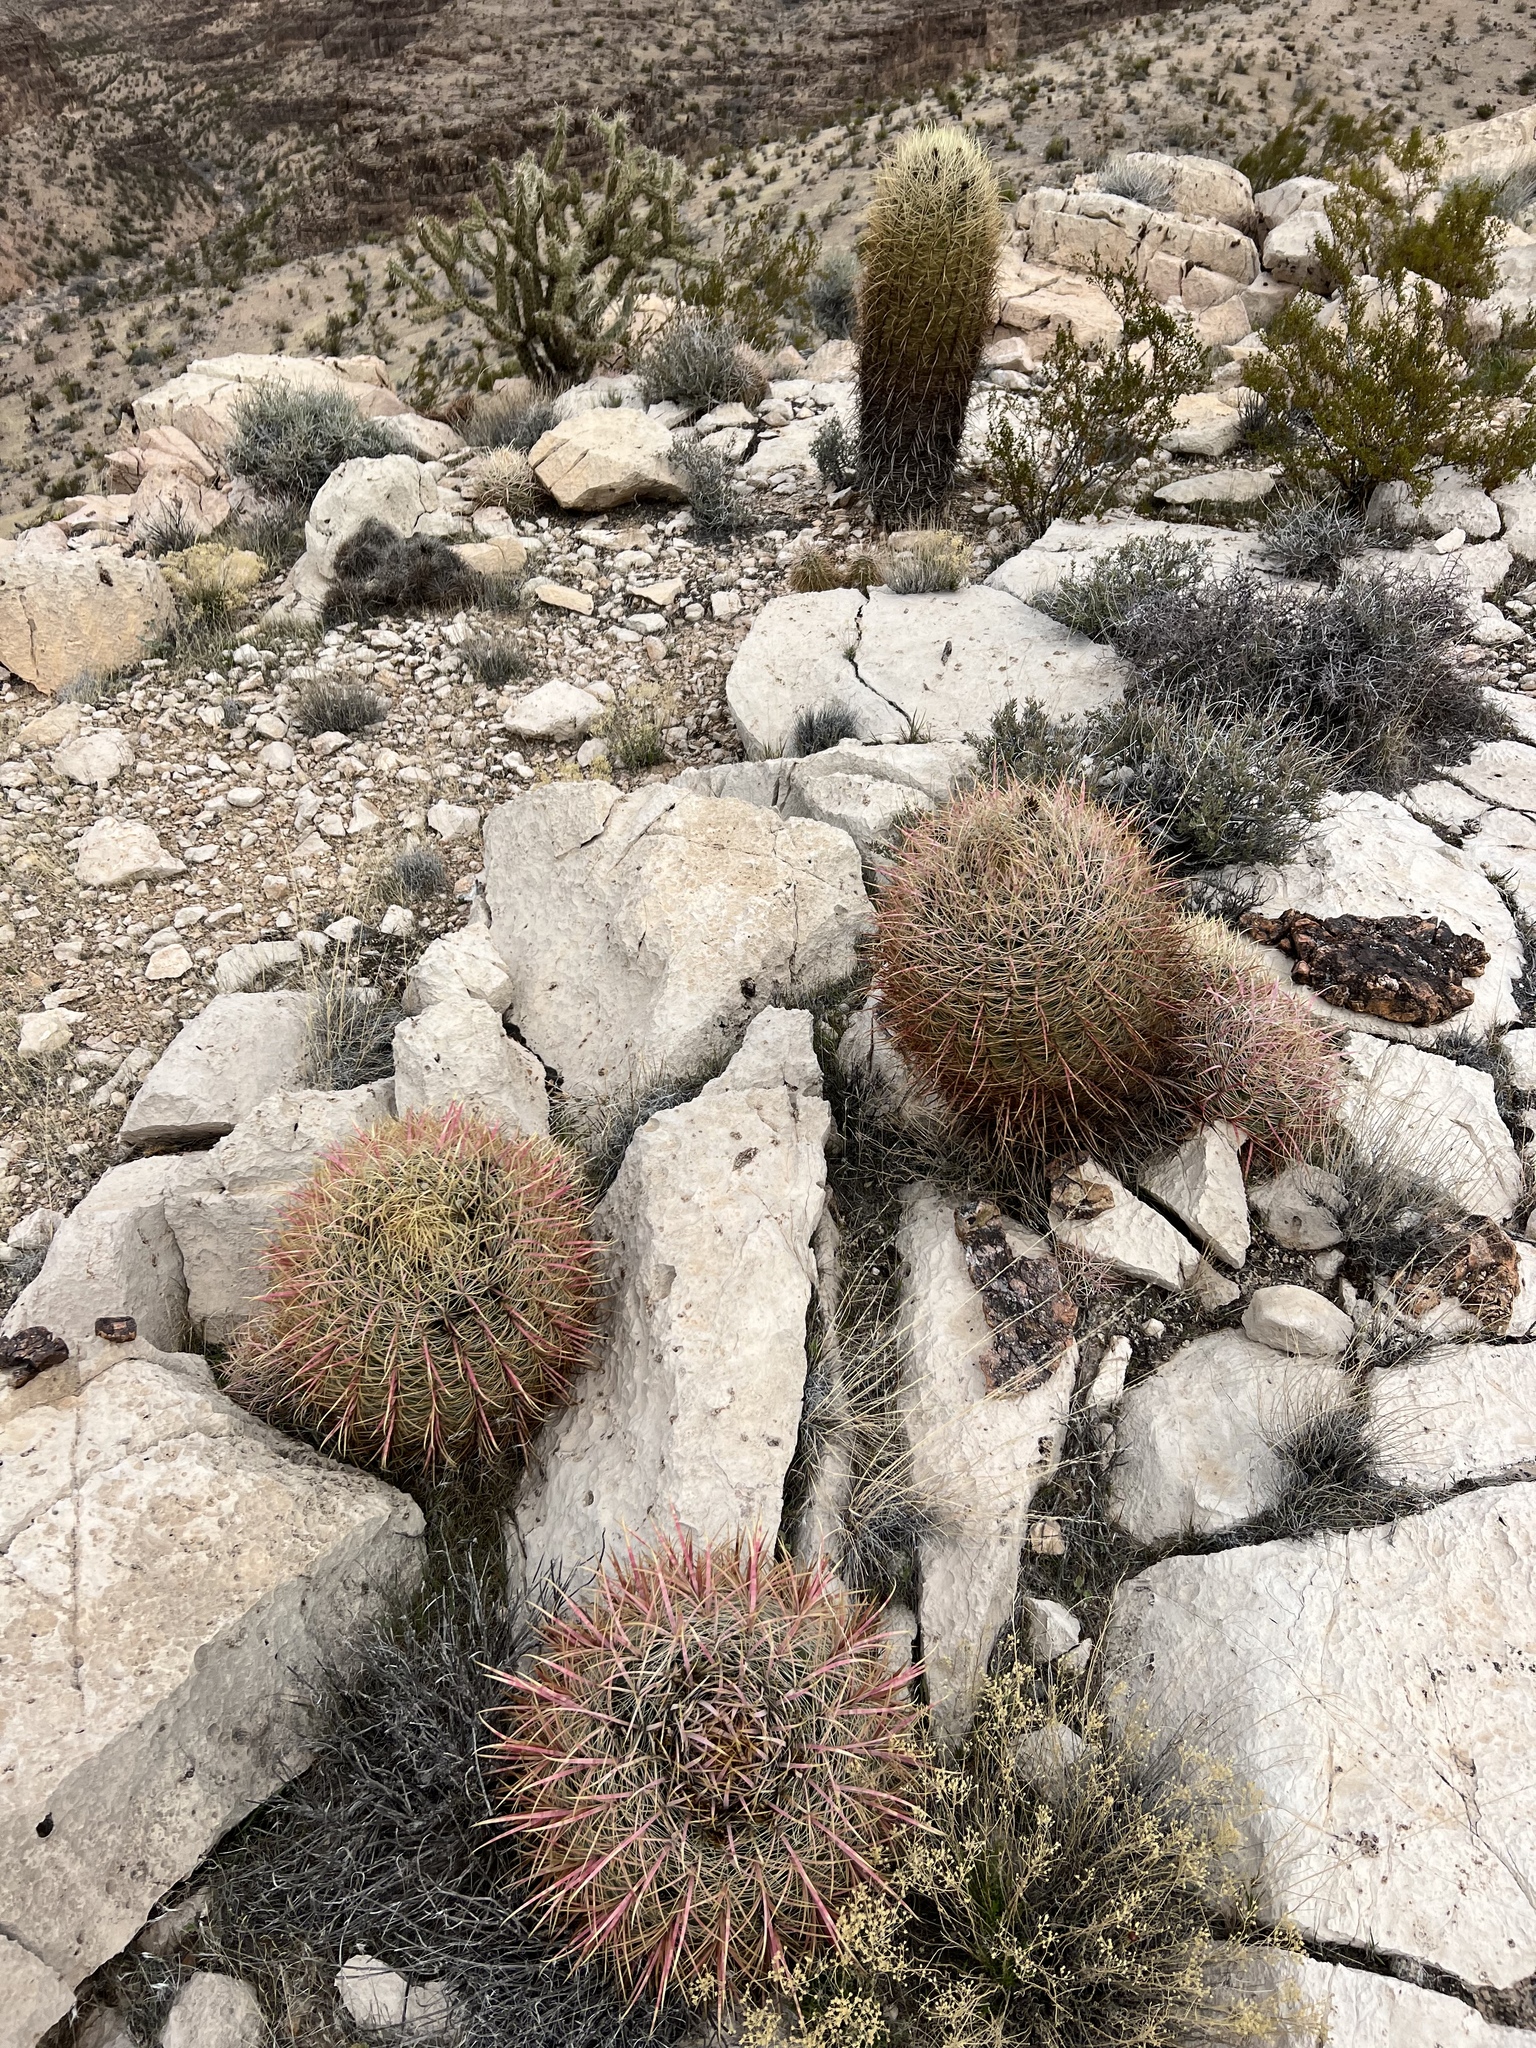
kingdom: Plantae
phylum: Tracheophyta
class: Magnoliopsida
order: Caryophyllales
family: Cactaceae
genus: Ferocactus
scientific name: Ferocactus cylindraceus
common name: California barrel cactus
